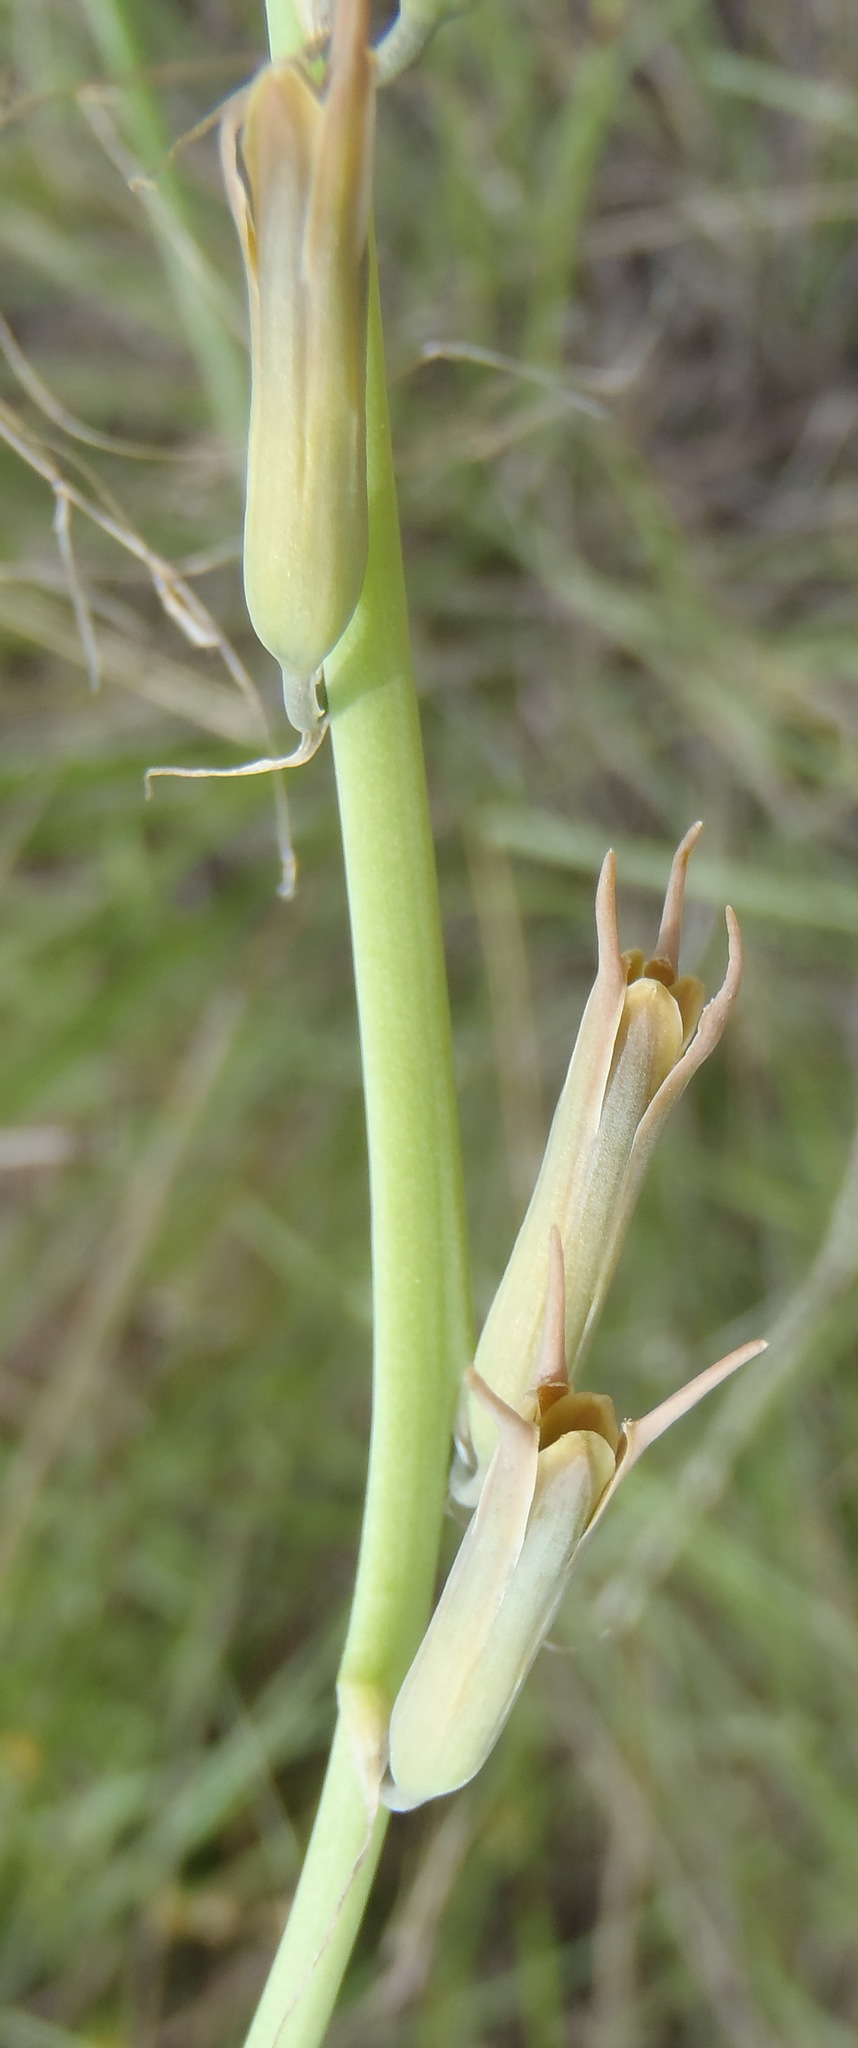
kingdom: Plantae
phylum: Tracheophyta
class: Liliopsida
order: Asparagales
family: Asparagaceae
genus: Dipcadi
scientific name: Dipcadi viride
